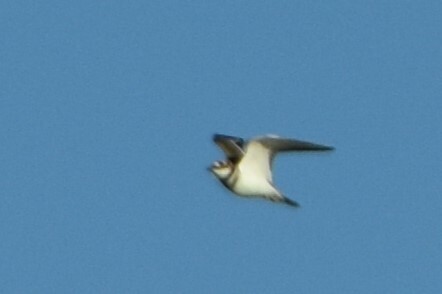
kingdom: Animalia
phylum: Chordata
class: Aves
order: Charadriiformes
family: Charadriidae
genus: Charadrius
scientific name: Charadrius vociferus
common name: Killdeer
